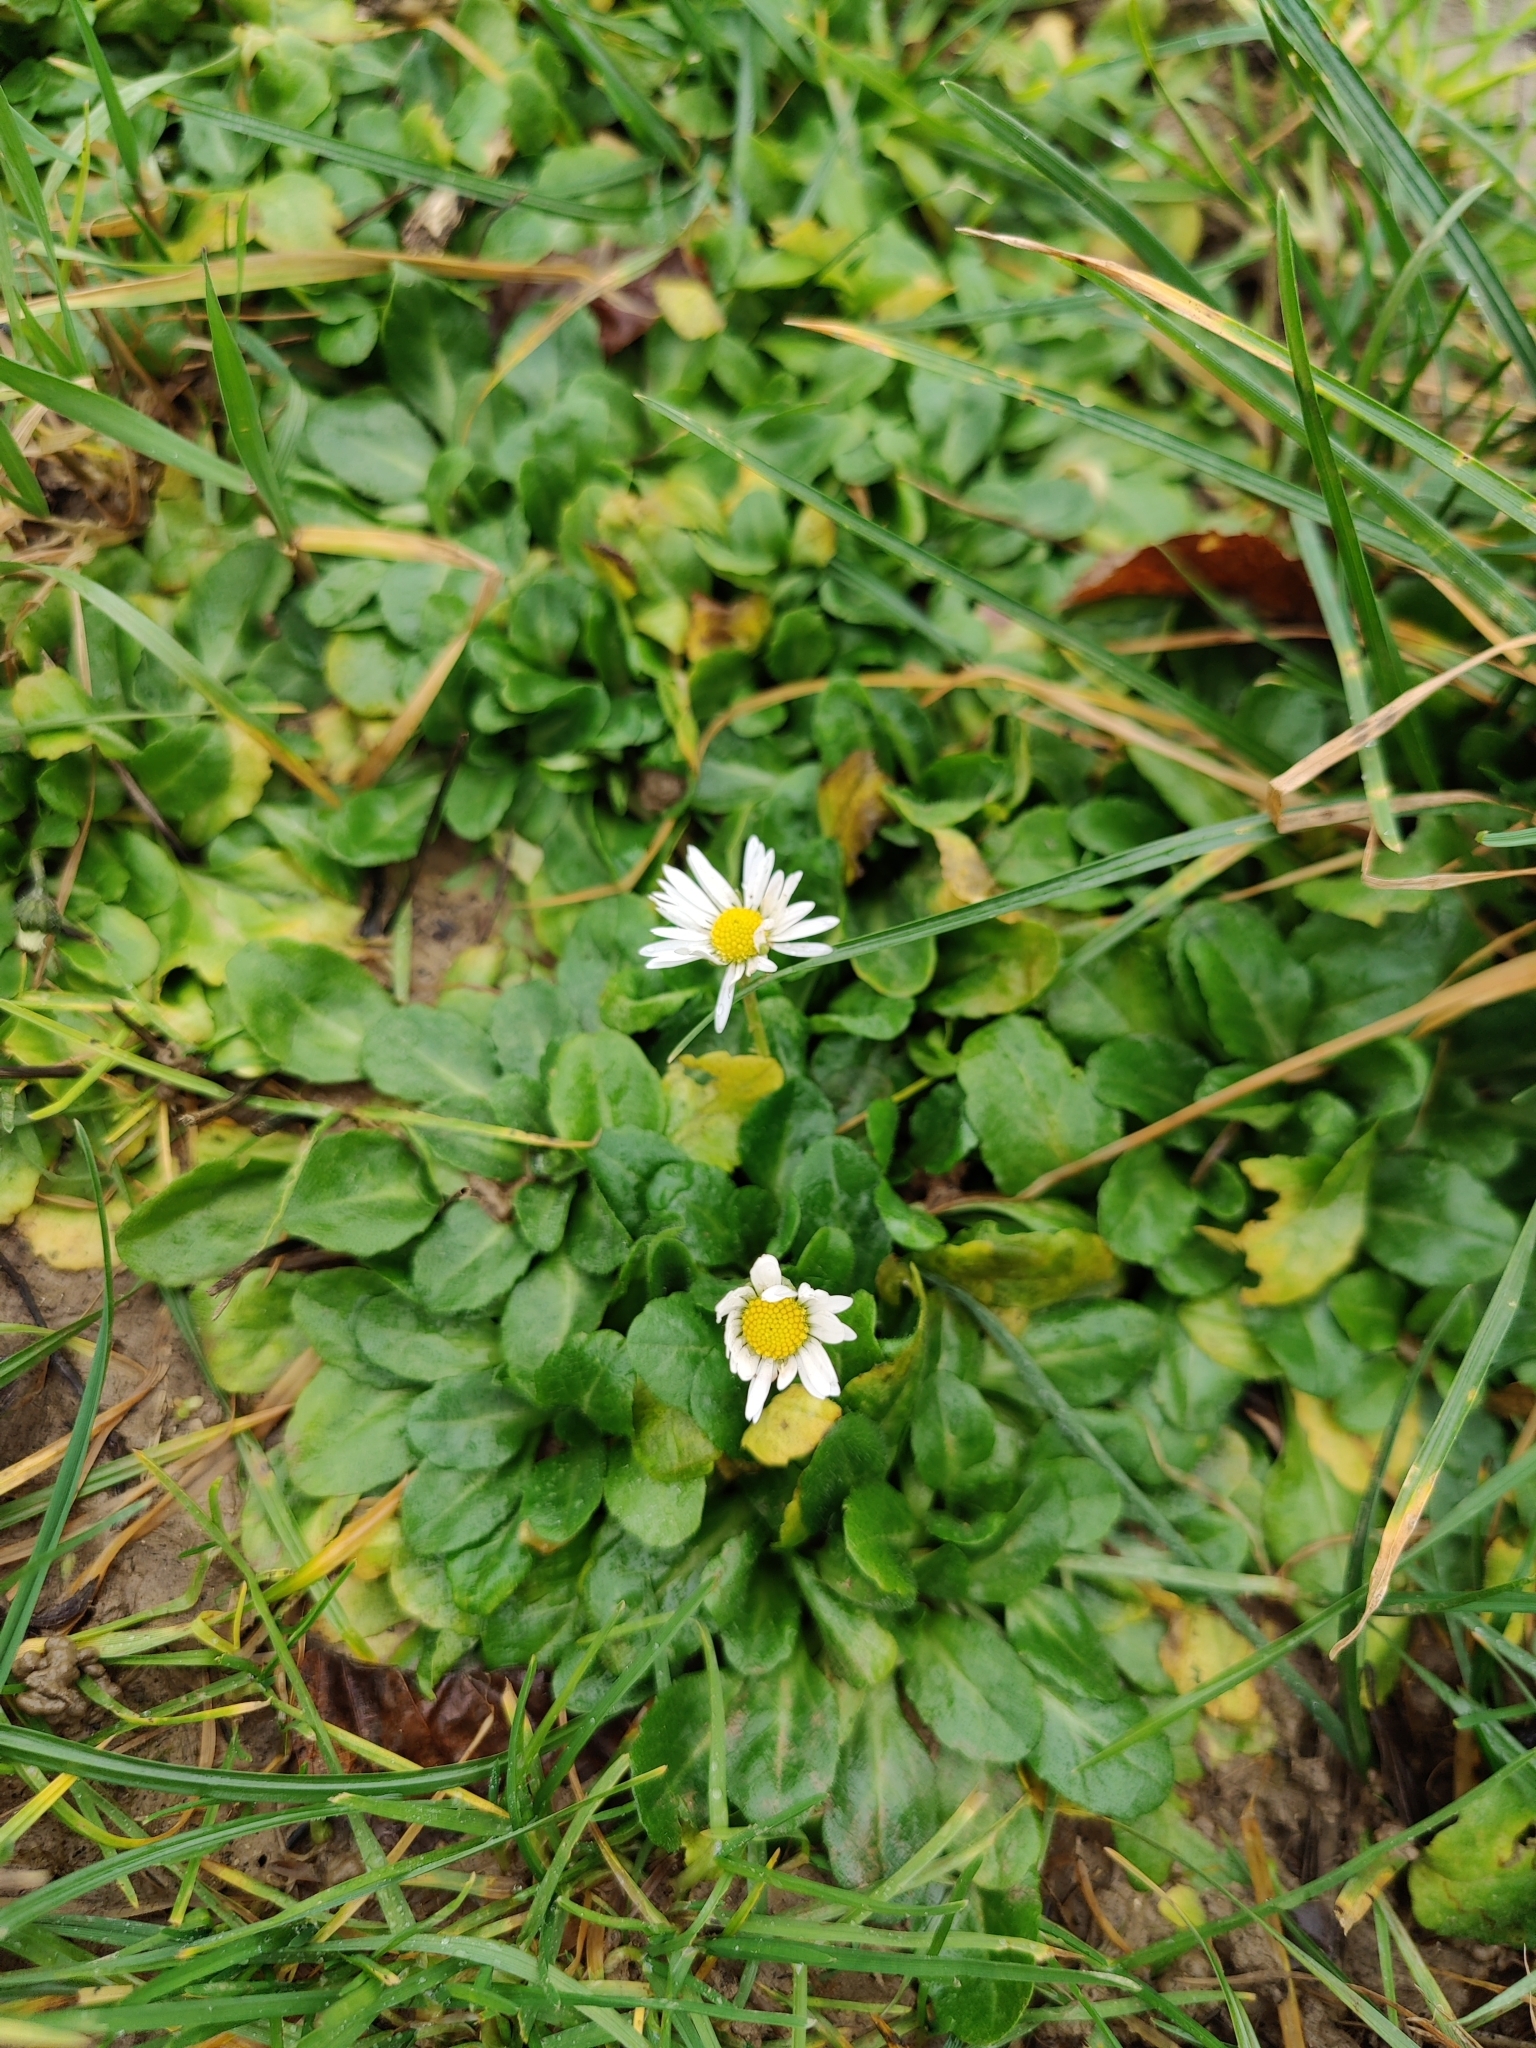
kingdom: Plantae
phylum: Tracheophyta
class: Magnoliopsida
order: Asterales
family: Asteraceae
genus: Bellis
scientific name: Bellis perennis
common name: Lawndaisy
